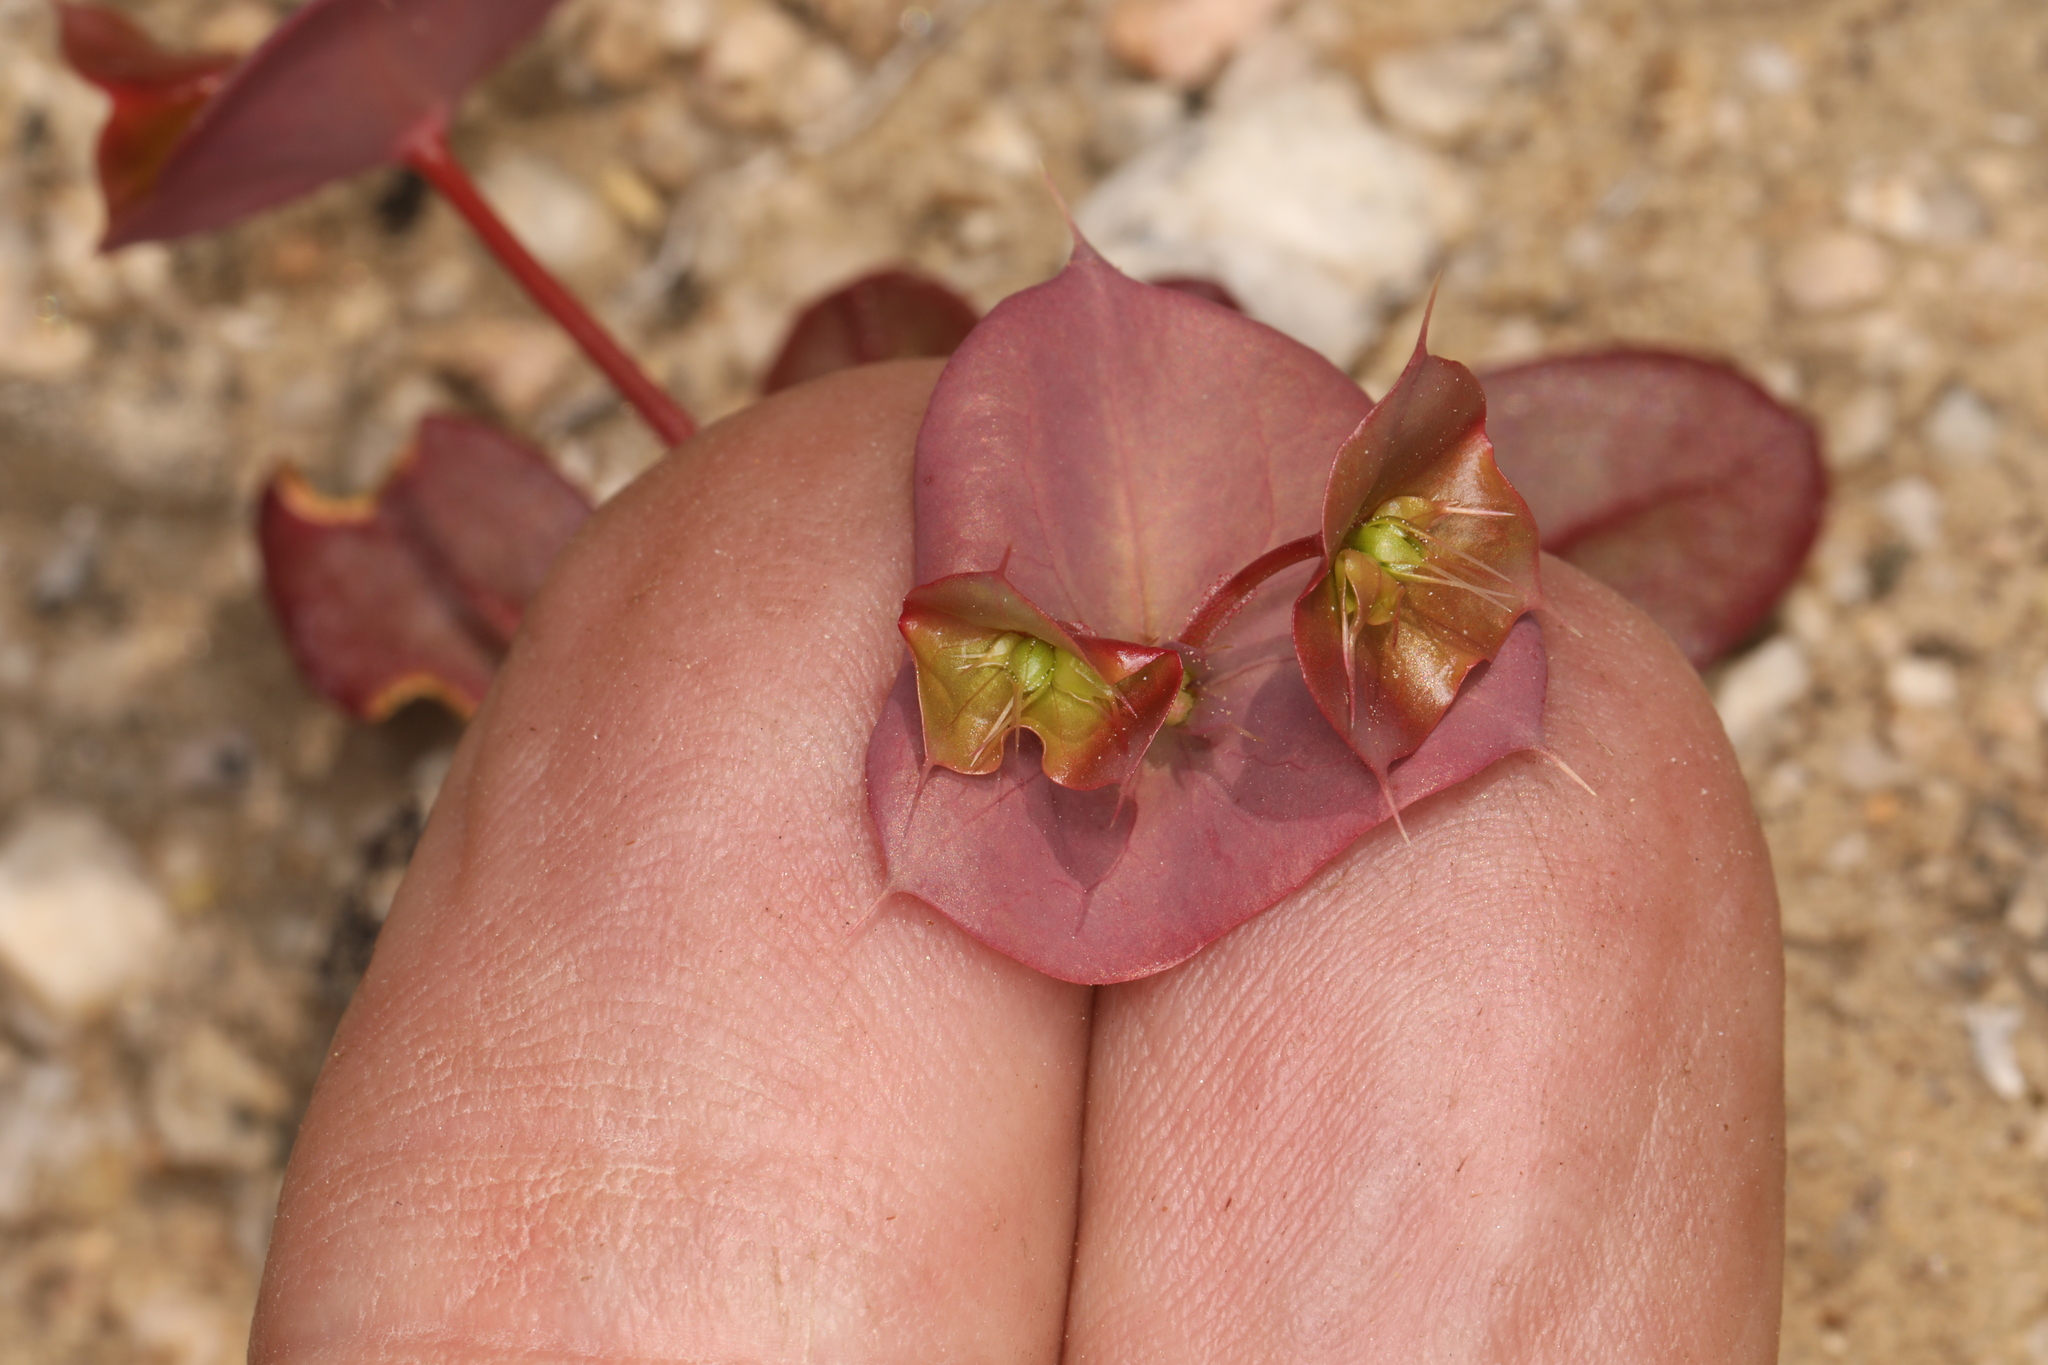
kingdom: Plantae
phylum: Tracheophyta
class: Magnoliopsida
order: Caryophyllales
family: Polygonaceae
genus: Oxytheca
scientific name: Oxytheca perfoliata
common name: Round-leaf puncturebract
